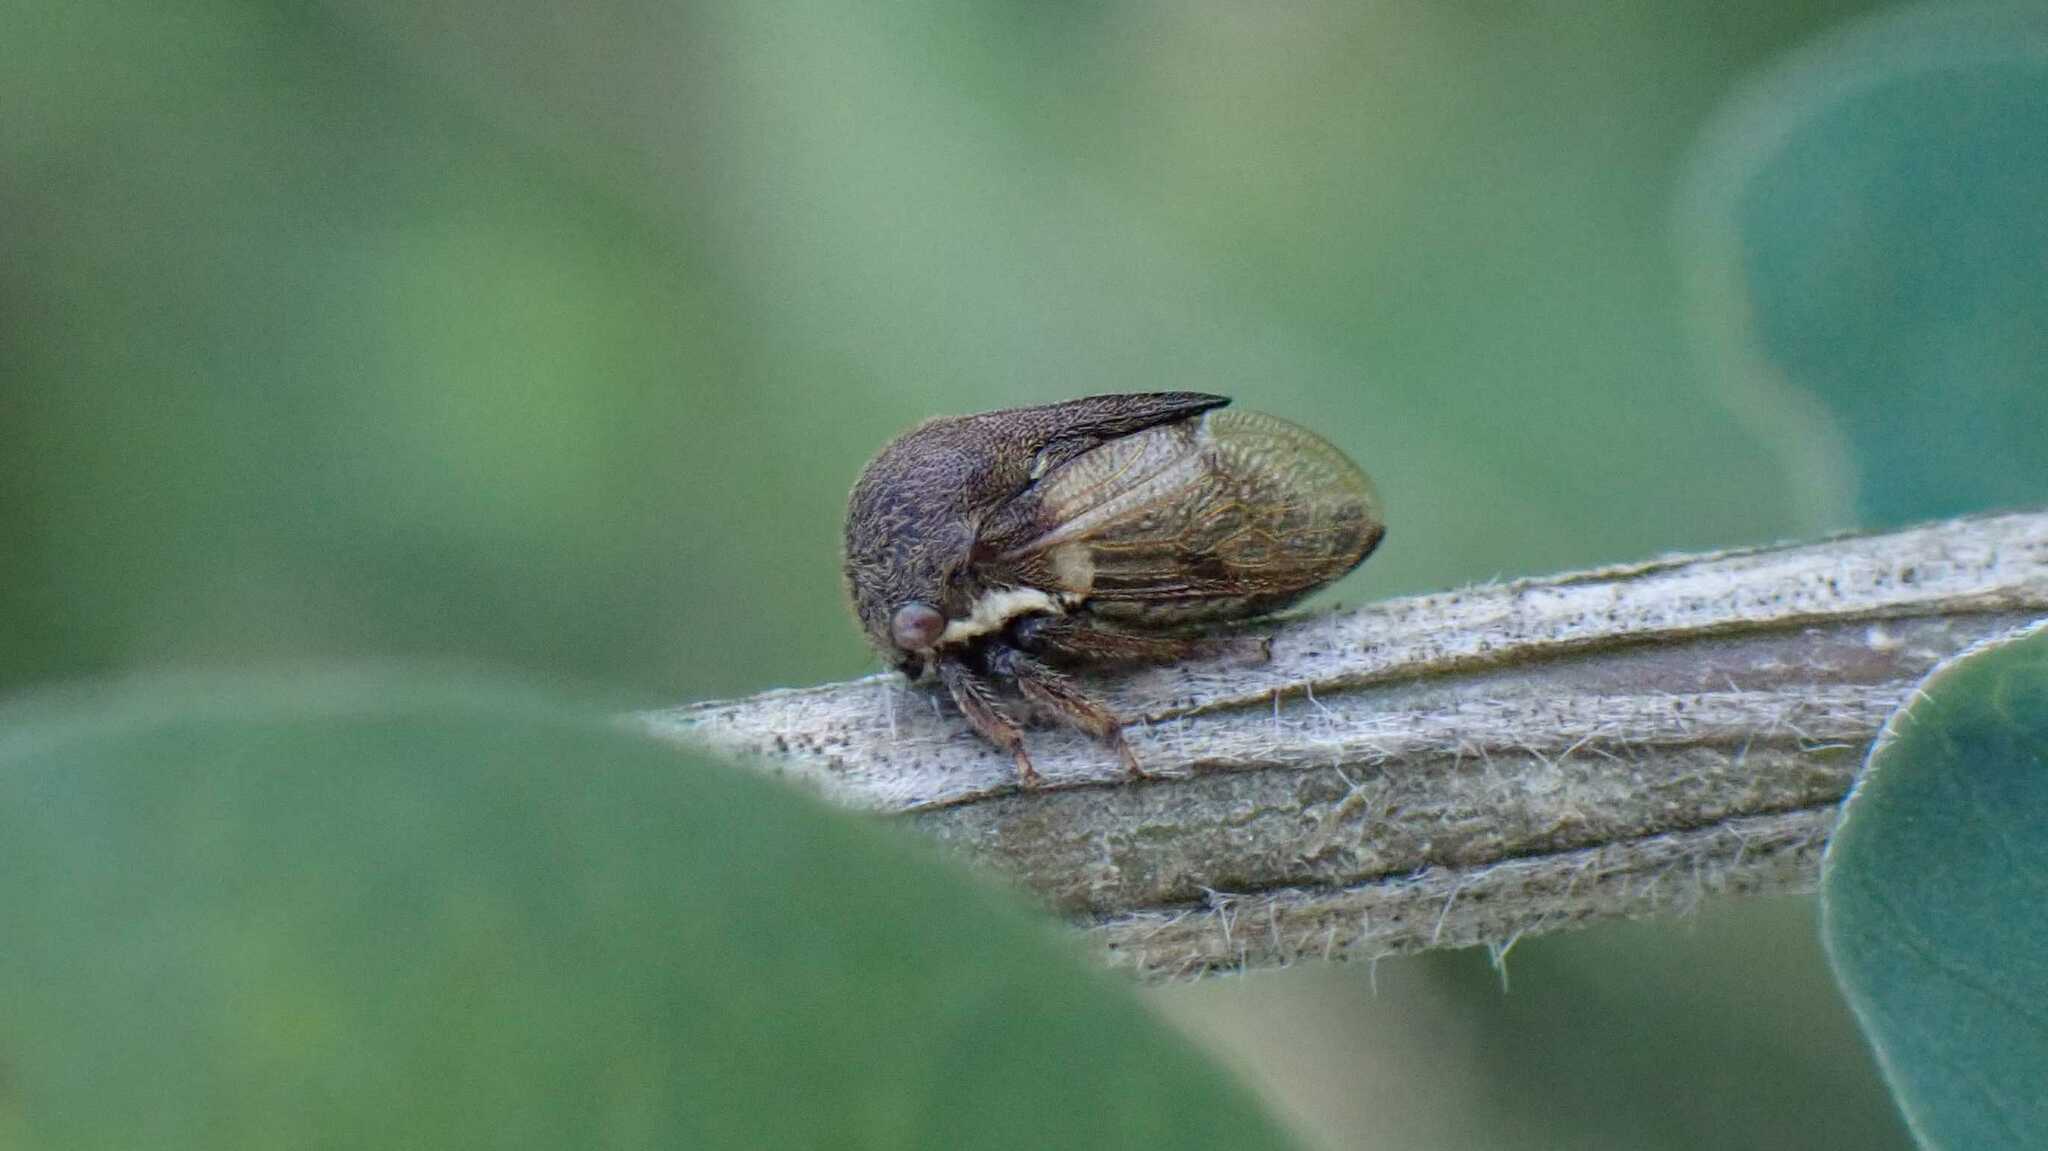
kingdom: Animalia
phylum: Arthropoda
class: Insecta
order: Hemiptera
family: Membracidae
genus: Gargara
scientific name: Gargara genistae
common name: Treehopper
